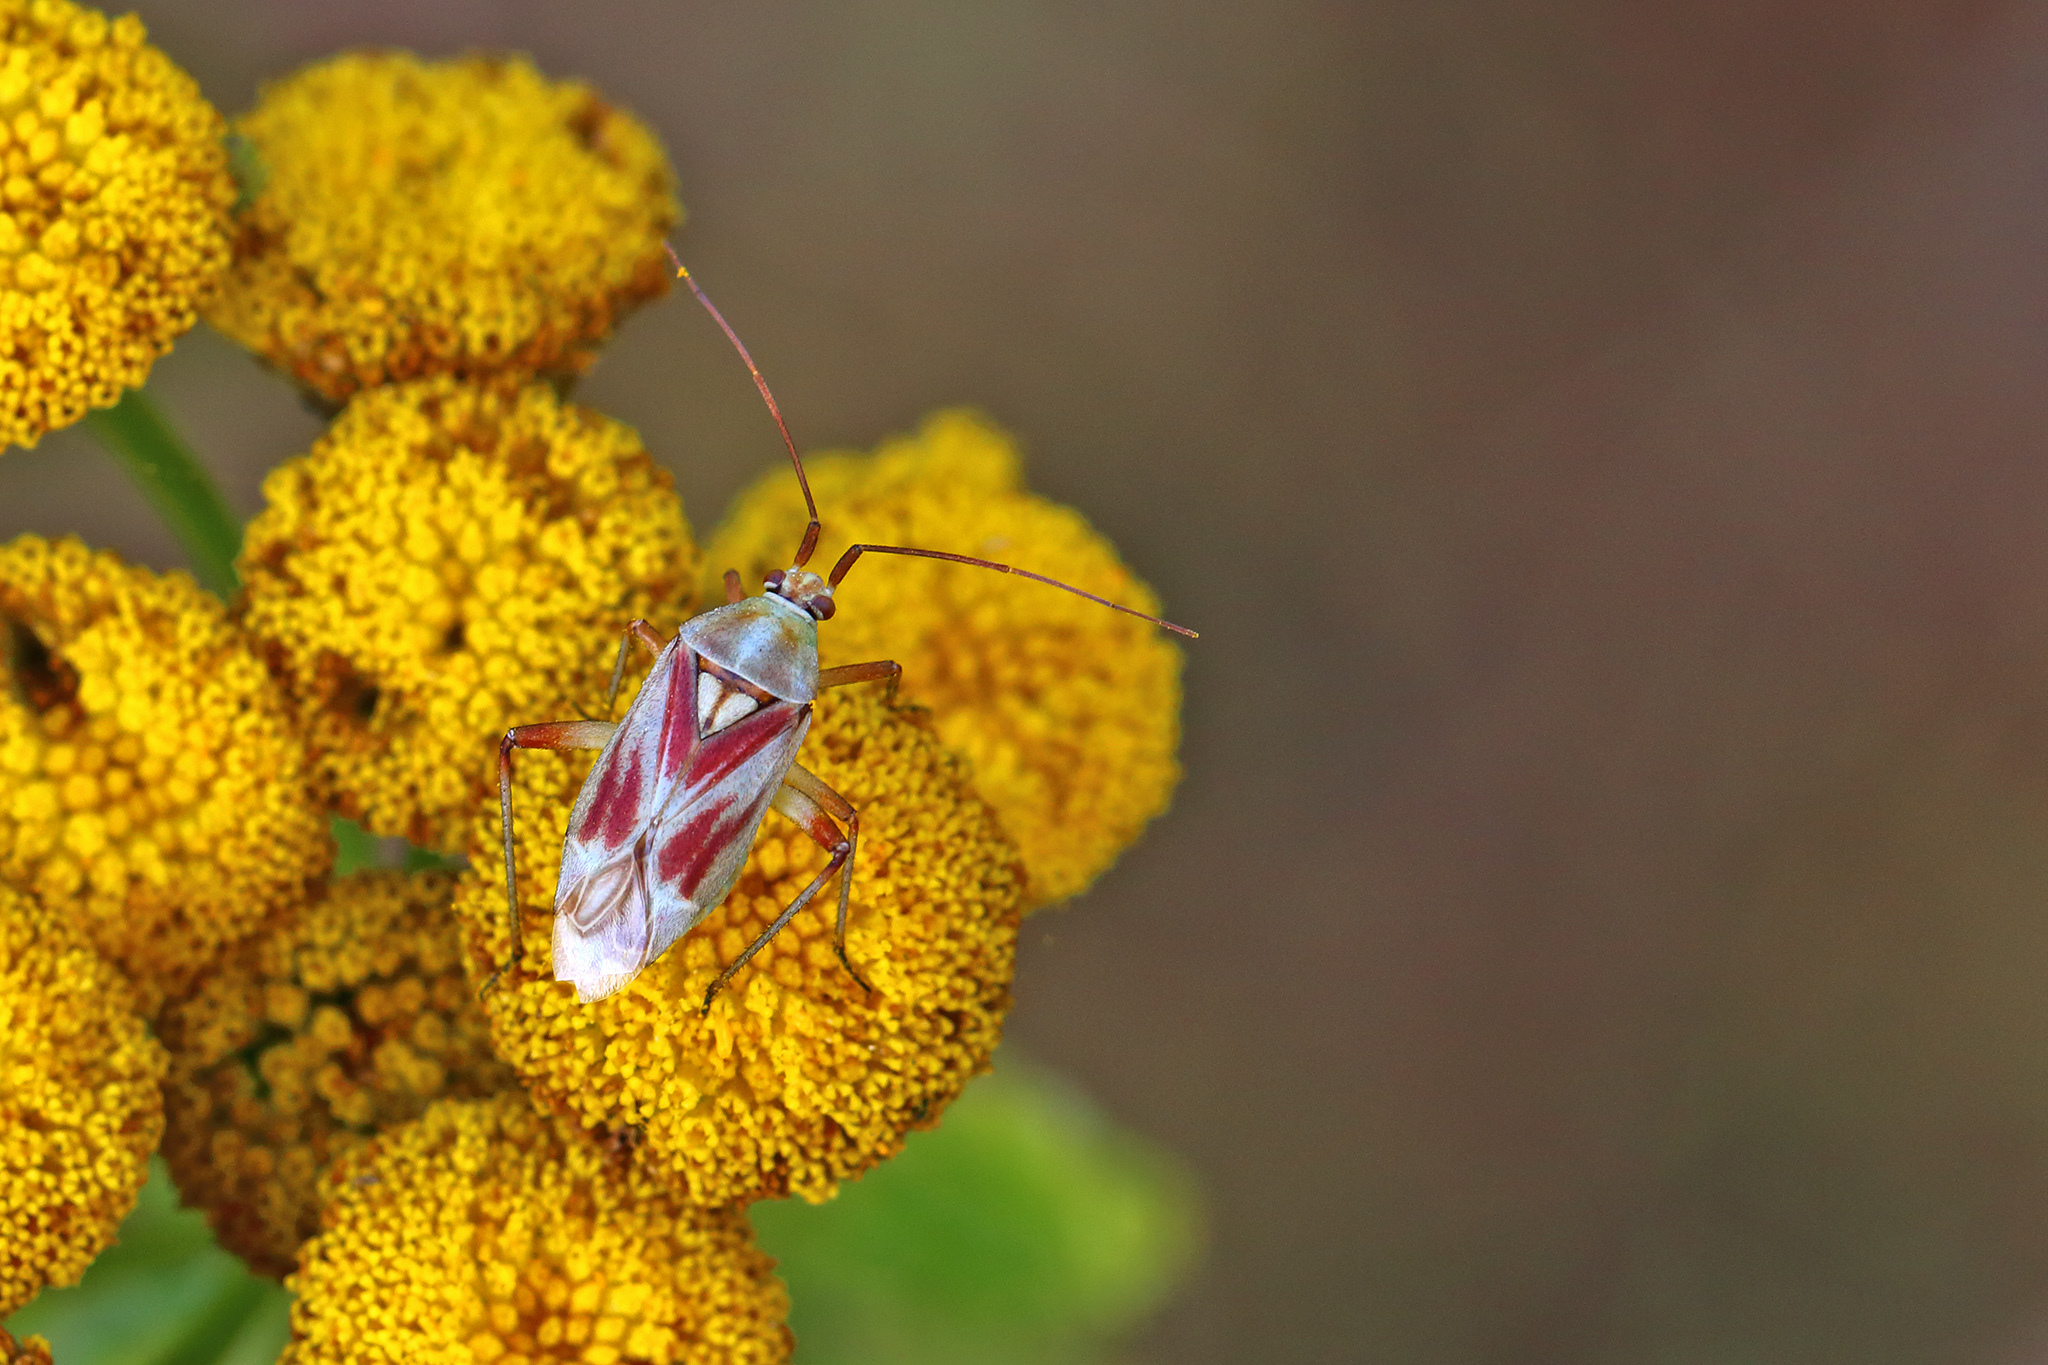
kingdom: Animalia
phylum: Arthropoda
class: Insecta
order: Hemiptera
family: Miridae
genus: Calocoris
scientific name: Calocoris roseomaculatus
